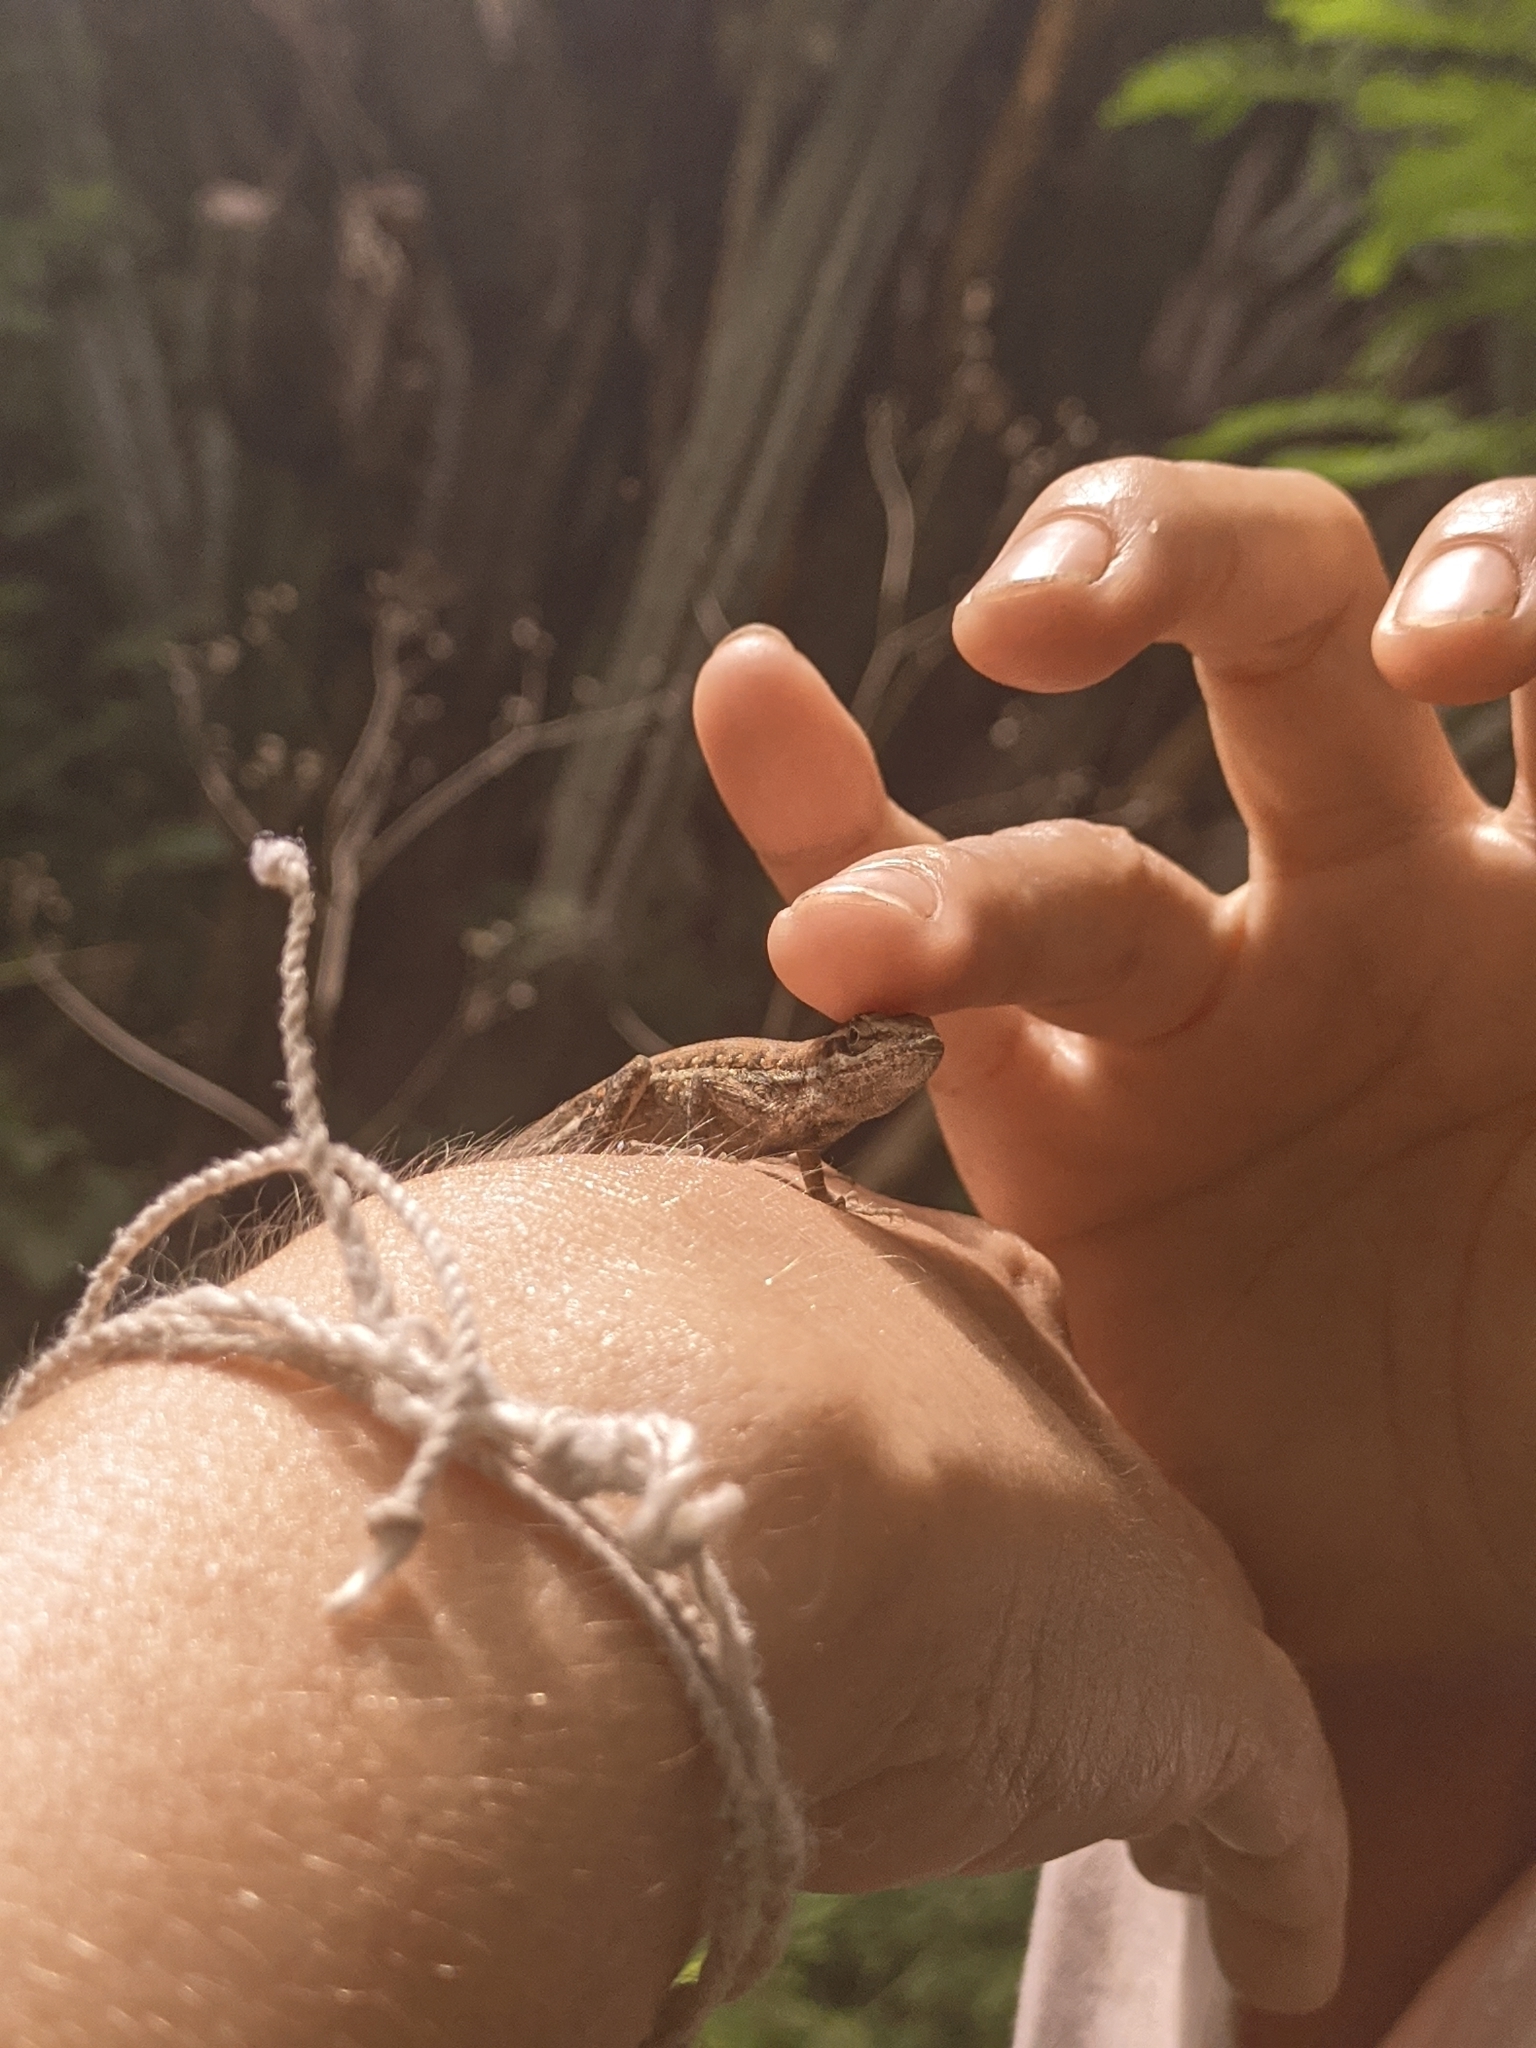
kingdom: Animalia
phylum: Chordata
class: Squamata
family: Dactyloidae
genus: Anolis
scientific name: Anolis auratus
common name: Grass anole
